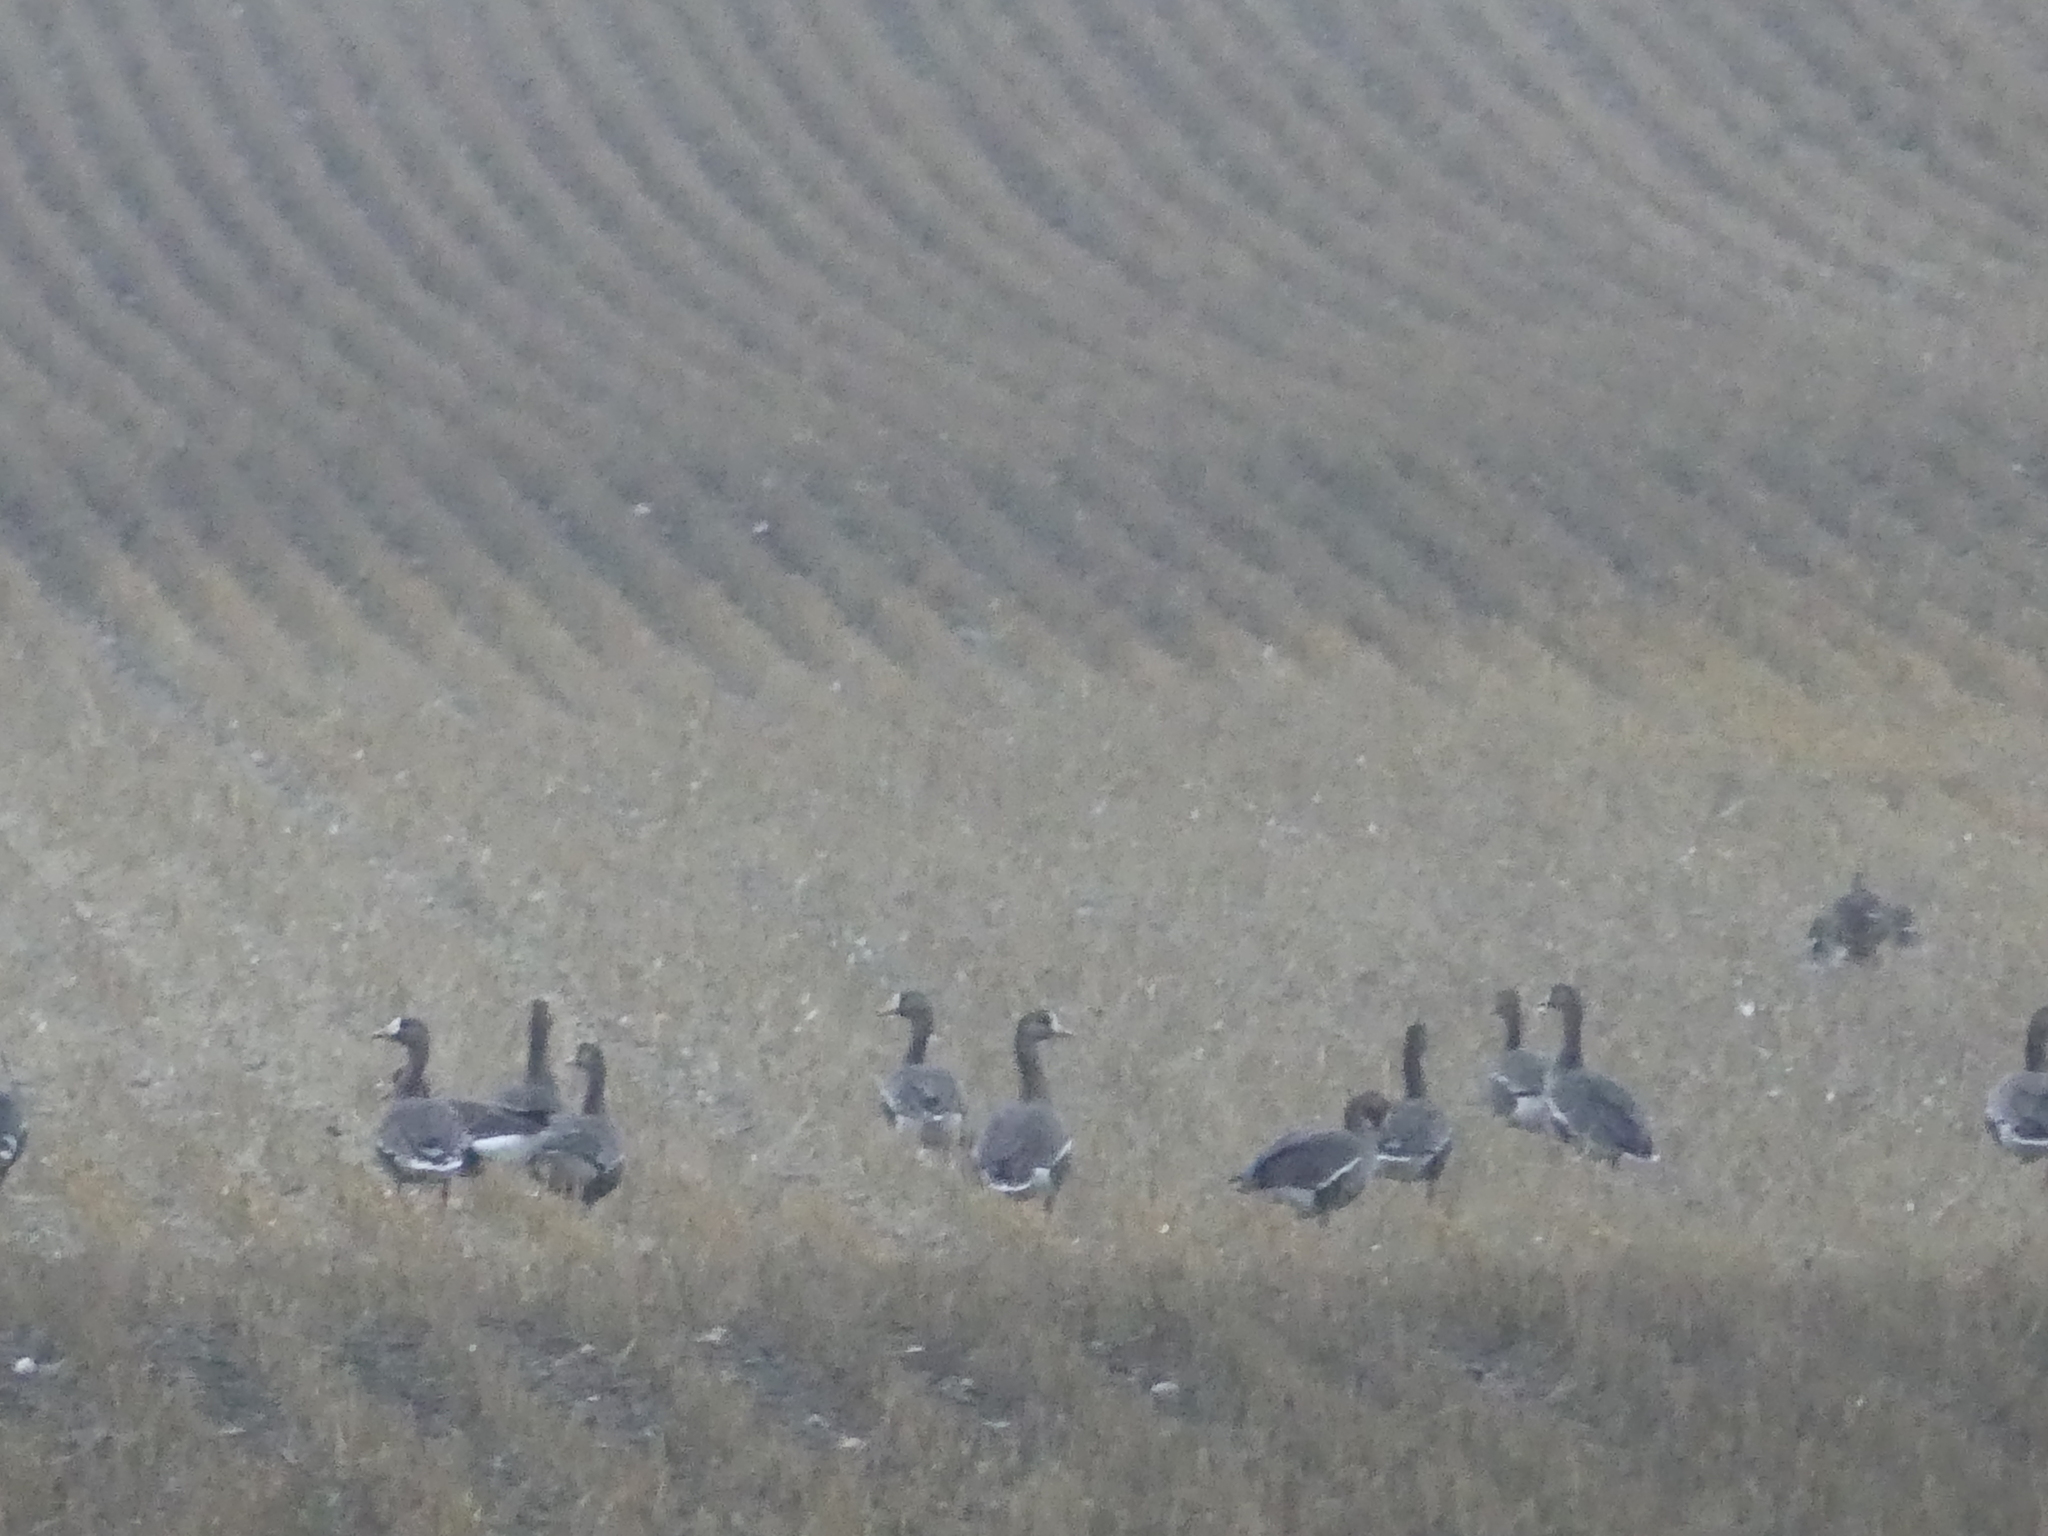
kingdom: Animalia
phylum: Chordata
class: Aves
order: Anseriformes
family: Anatidae
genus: Anser
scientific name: Anser albifrons
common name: Greater white-fronted goose
